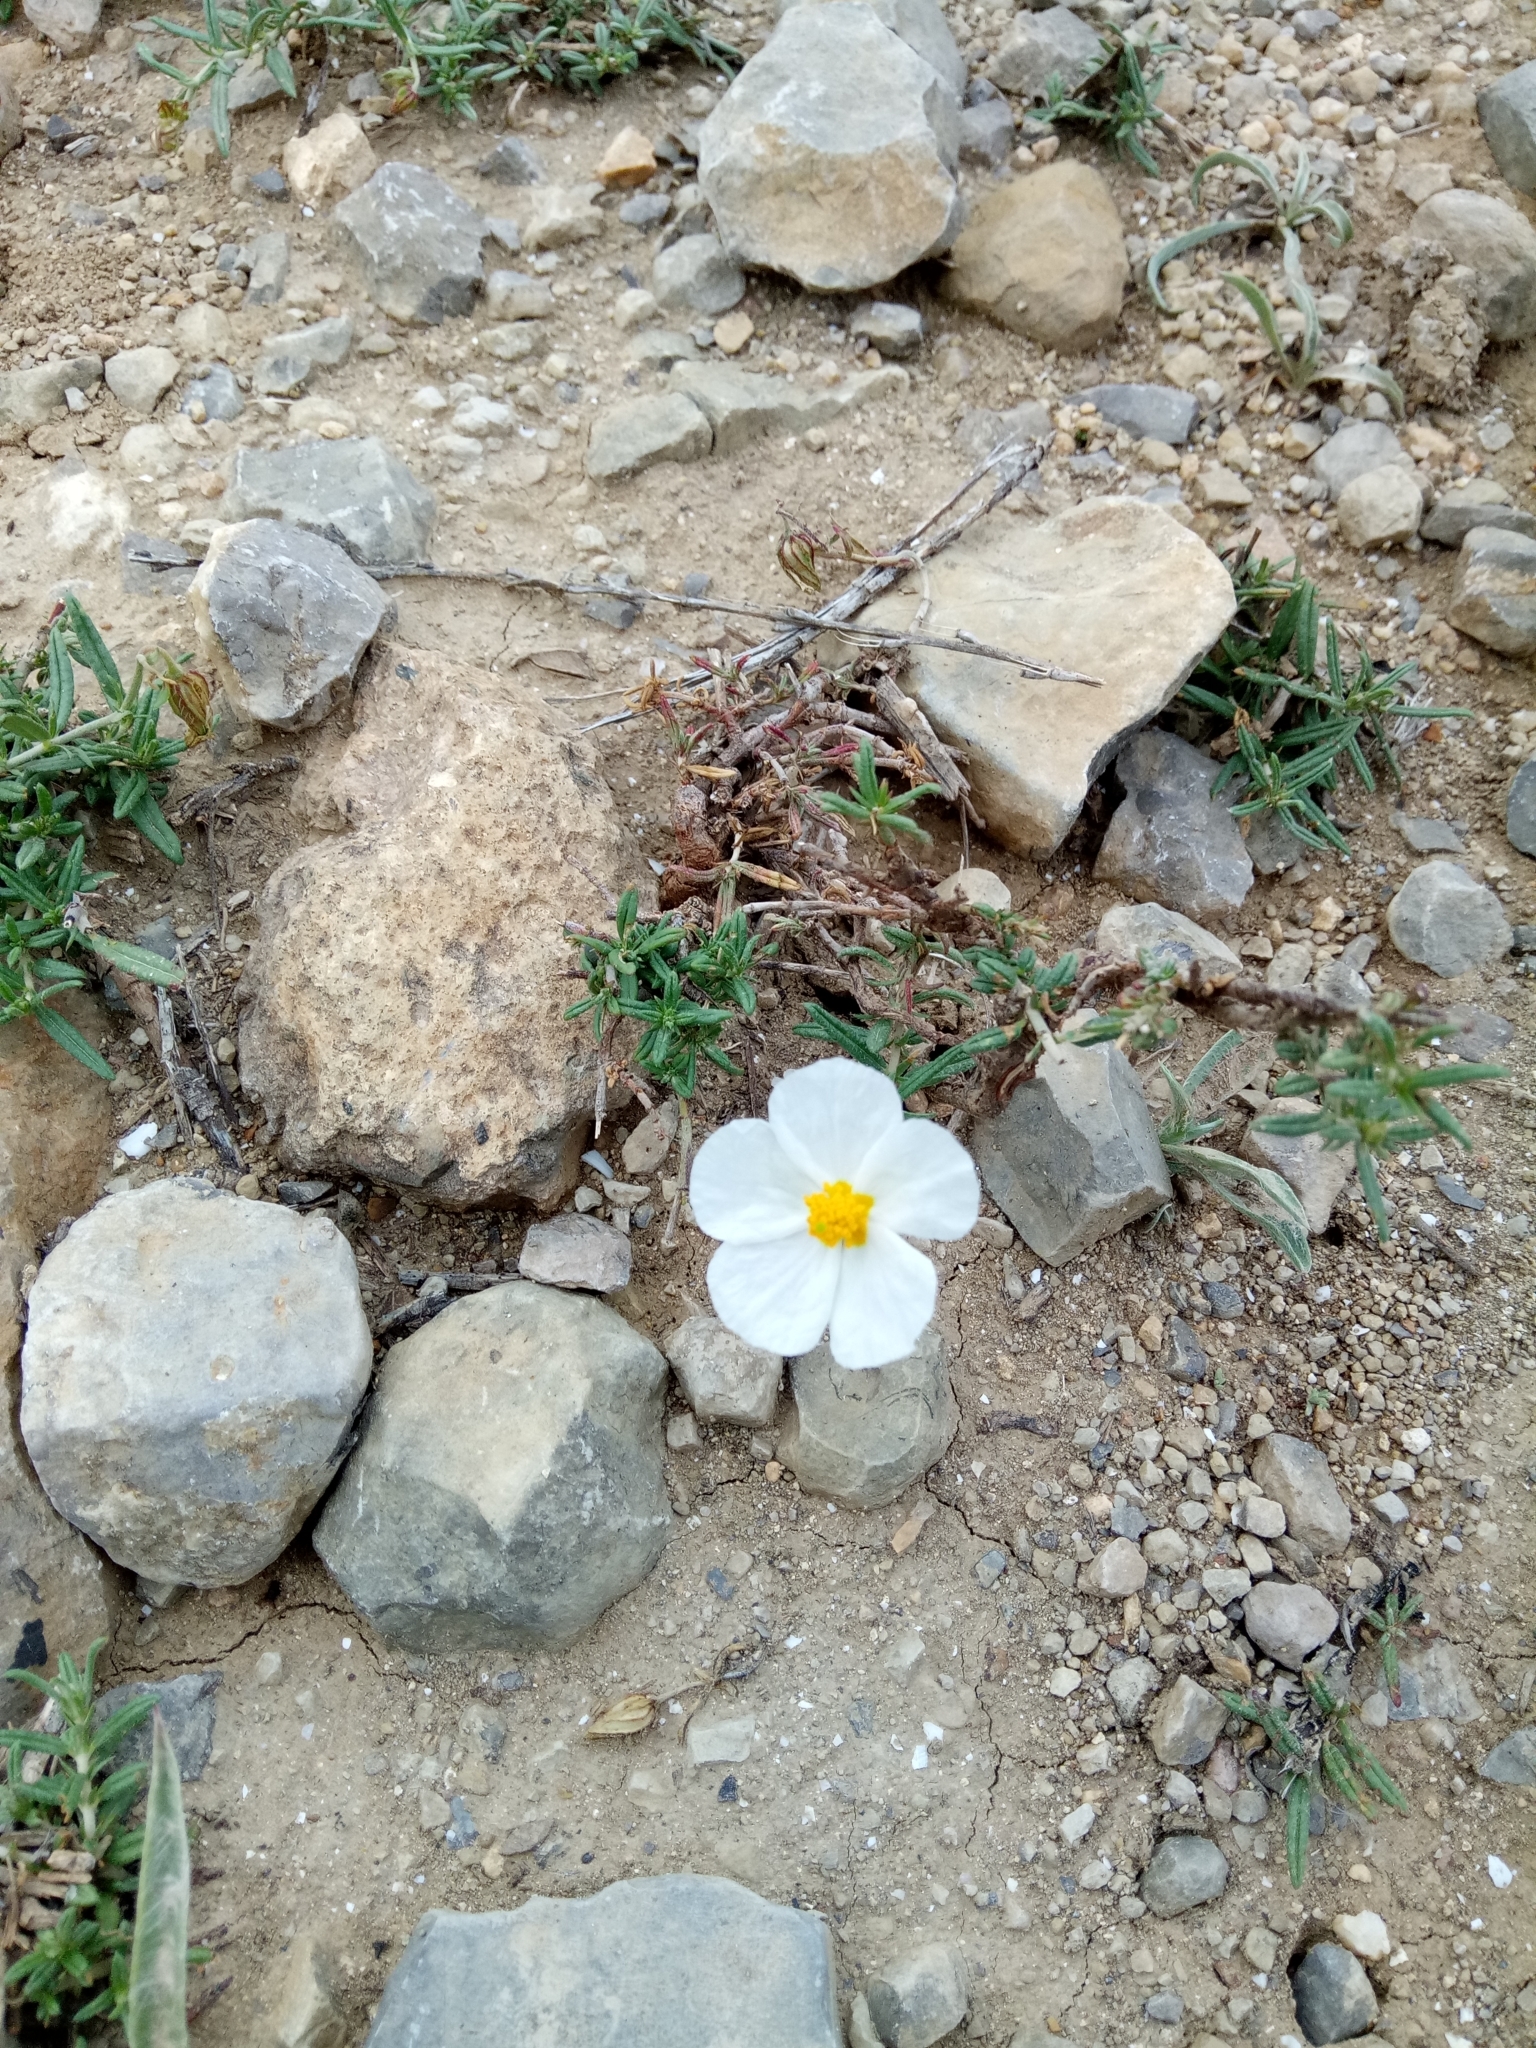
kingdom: Plantae
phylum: Tracheophyta
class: Magnoliopsida
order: Malvales
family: Cistaceae
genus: Helianthemum
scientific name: Helianthemum pergamaceum
